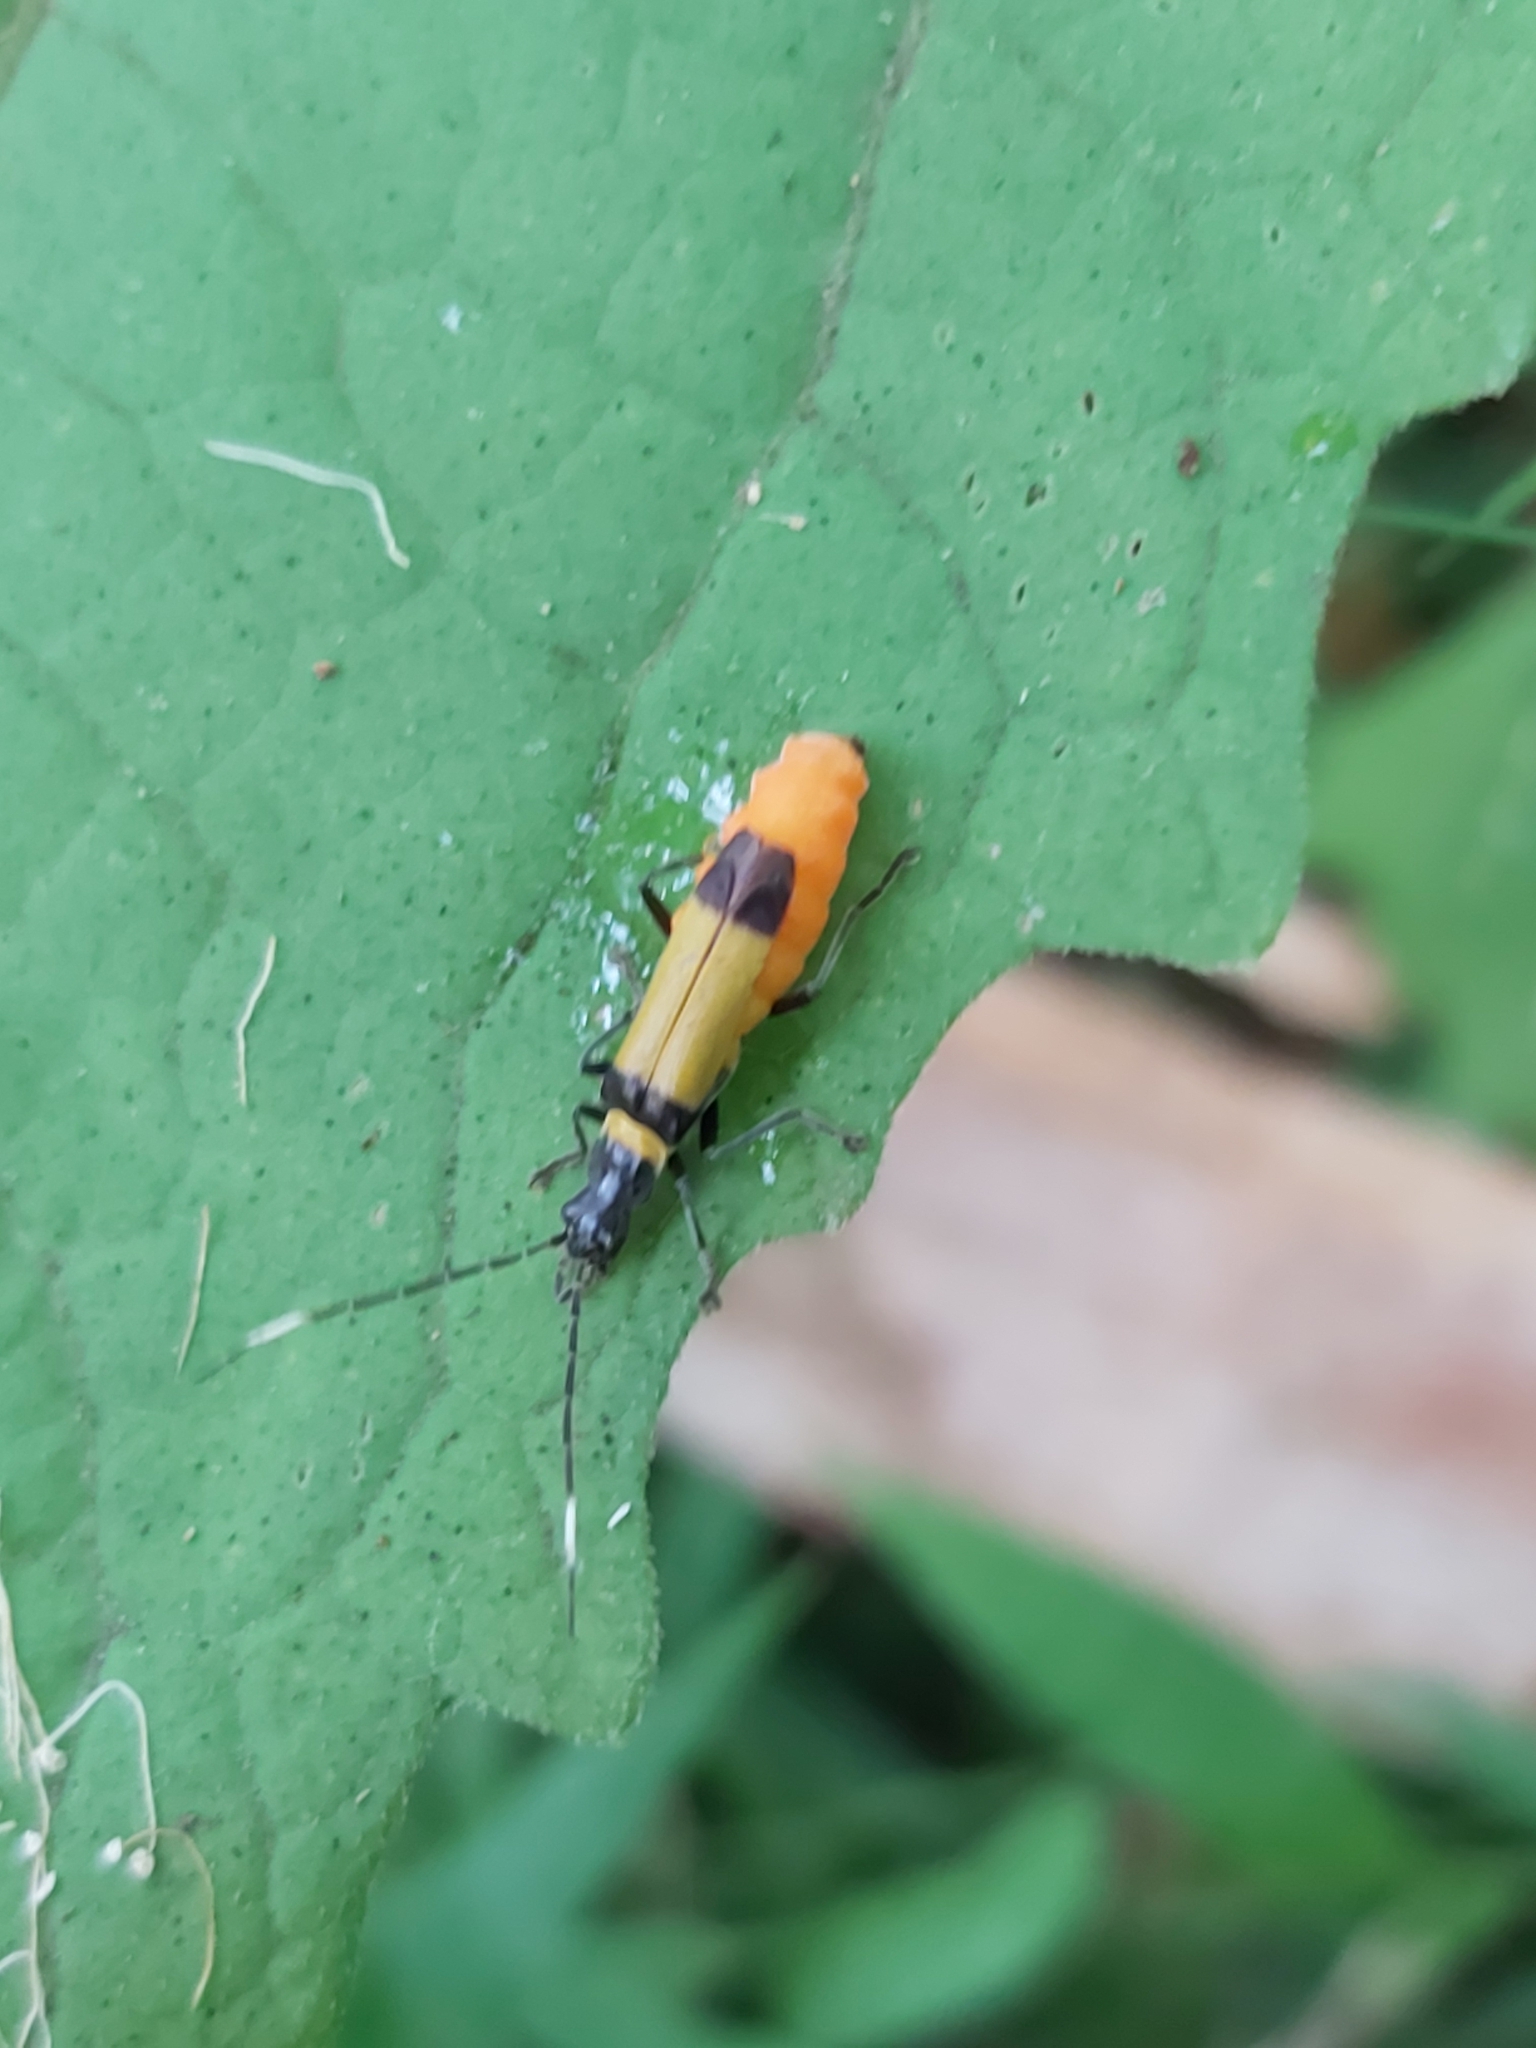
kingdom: Animalia
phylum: Arthropoda
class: Insecta
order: Coleoptera
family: Cantharidae
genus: Chauliognathus
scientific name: Chauliognathus
